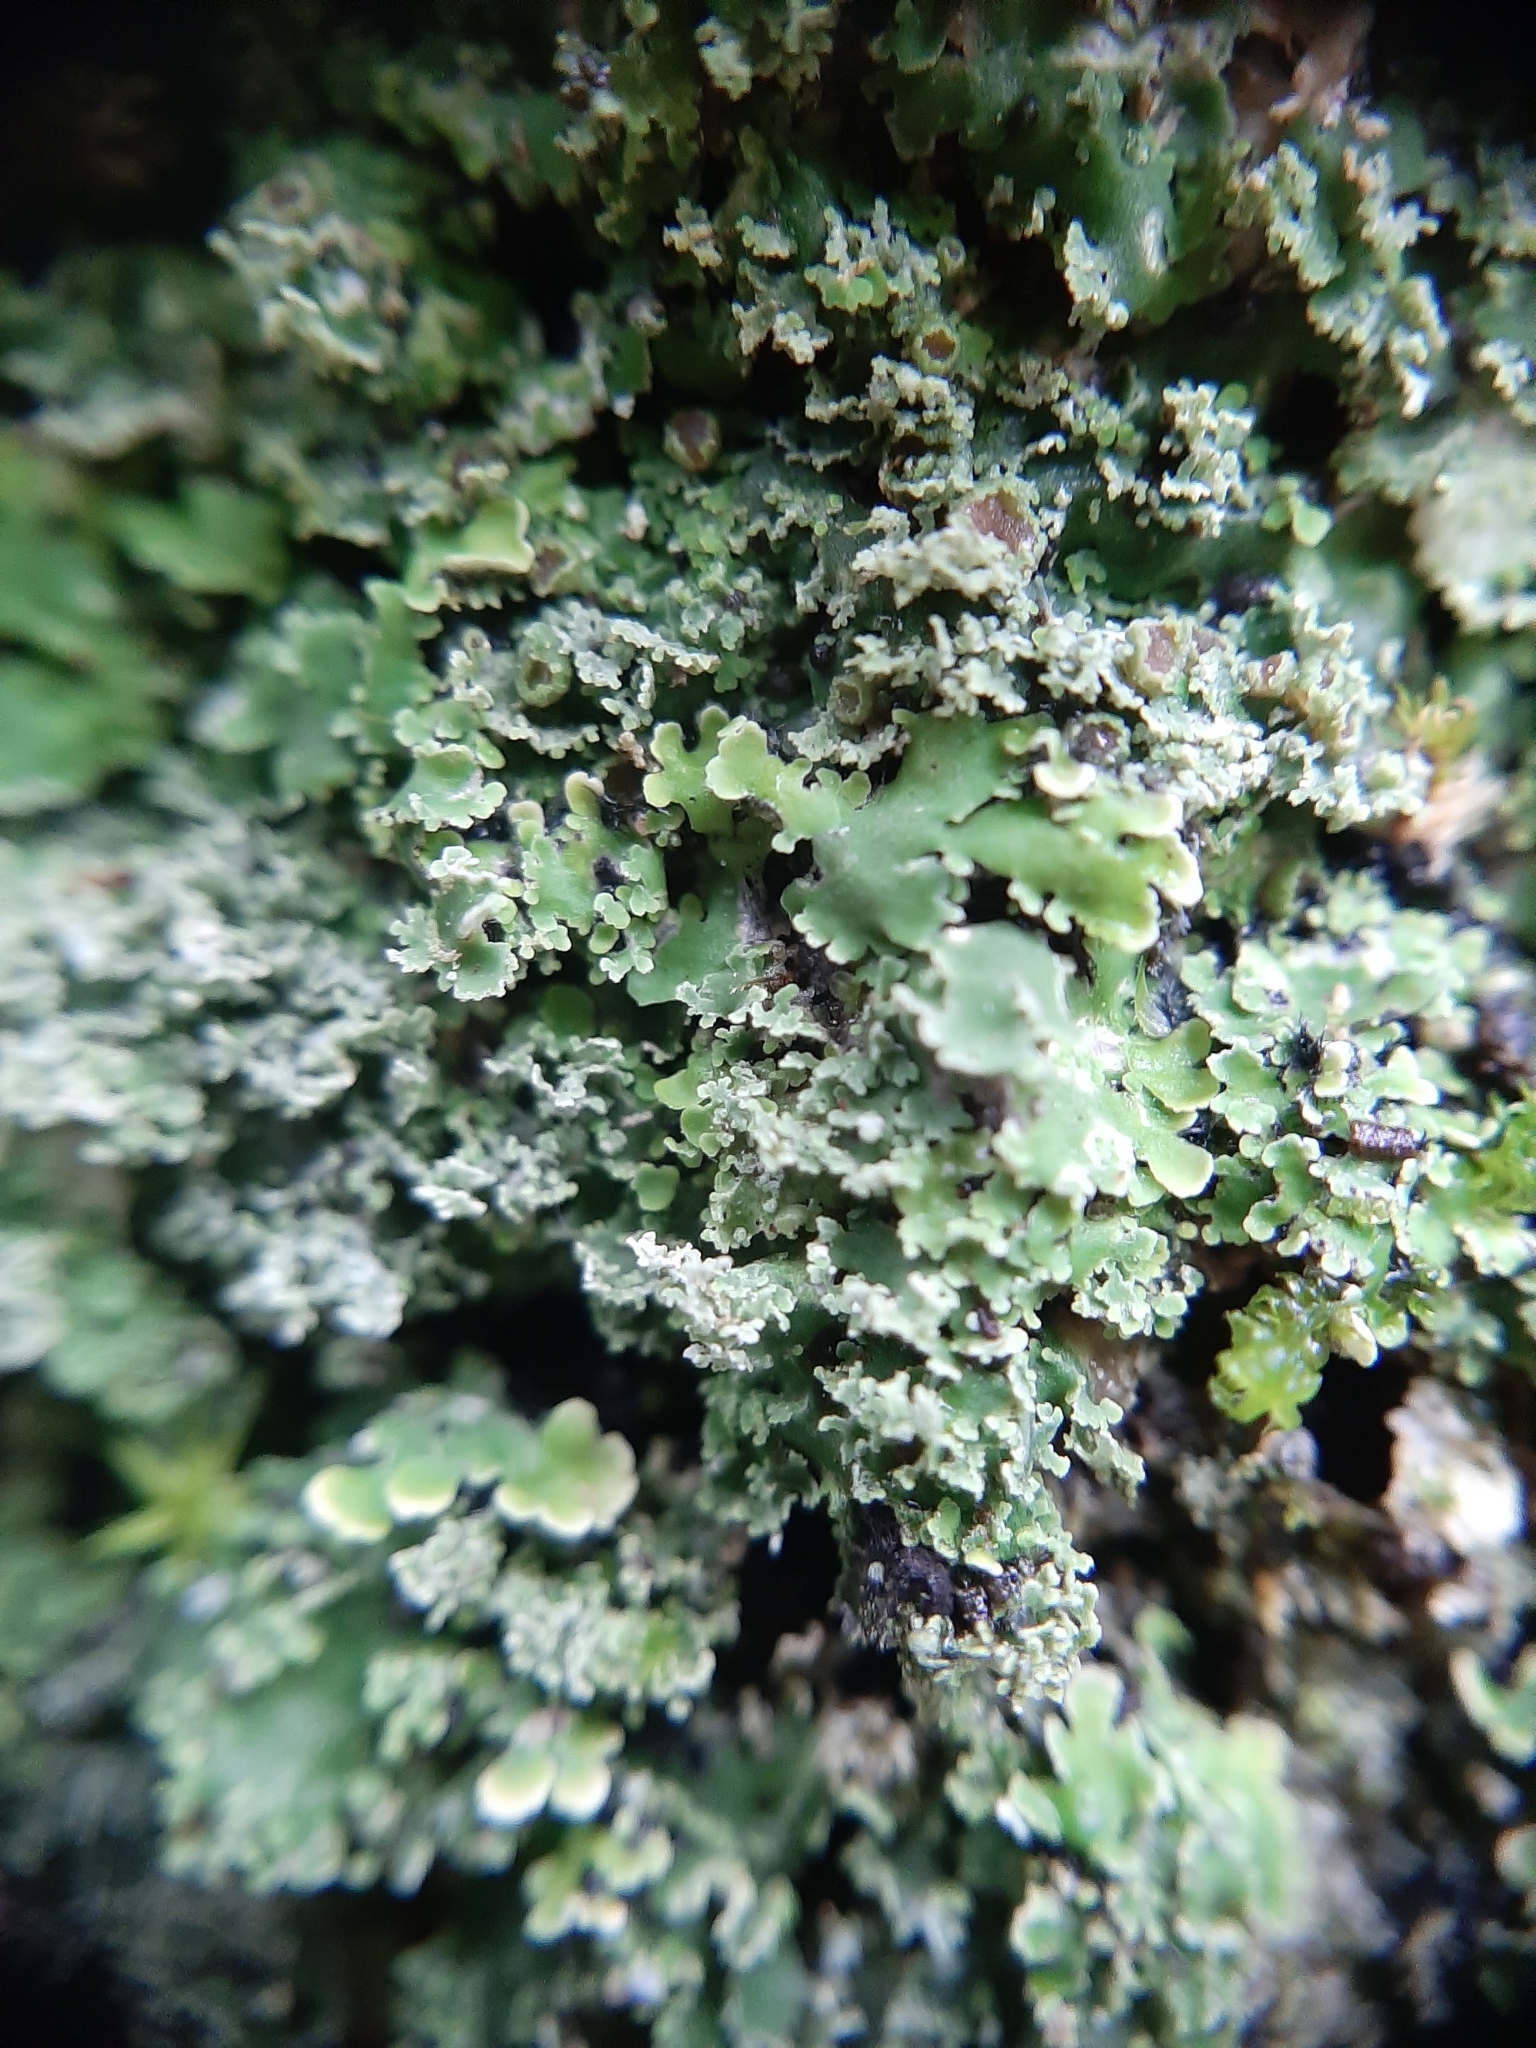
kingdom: Fungi
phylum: Ascomycota
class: Lecanoromycetes
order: Peltigerales
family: Pannariaceae
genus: Pannaria
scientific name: Pannaria minutiphylla
